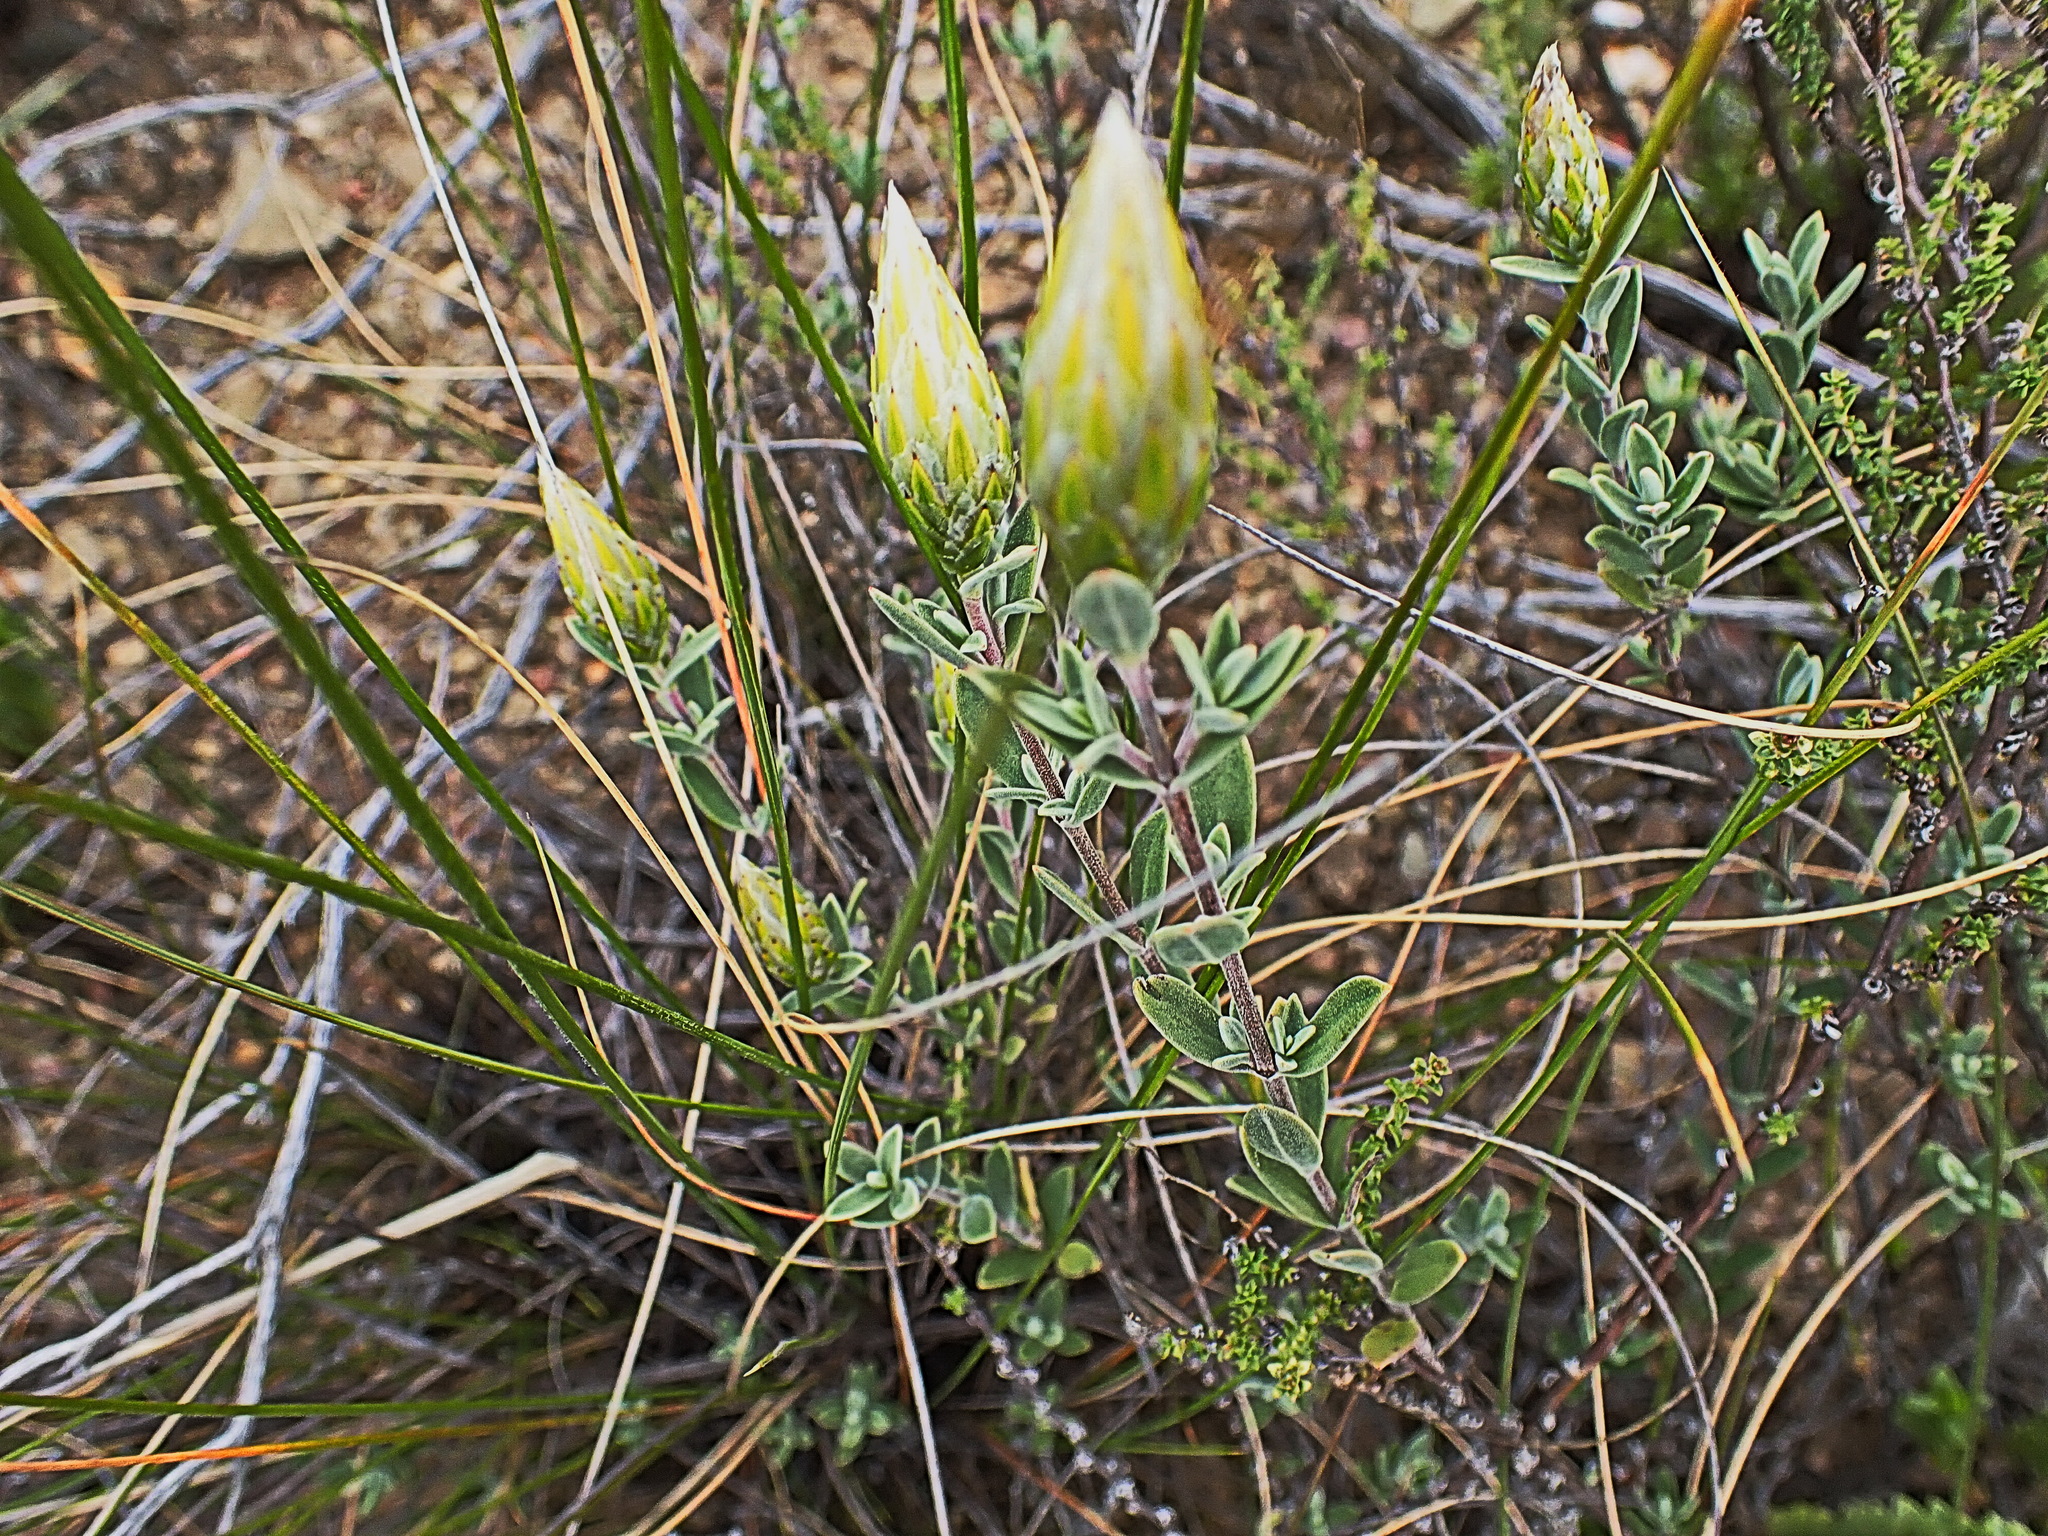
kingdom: Plantae
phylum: Tracheophyta
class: Magnoliopsida
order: Asterales
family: Asteraceae
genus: Pteronia
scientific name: Pteronia membranacea
